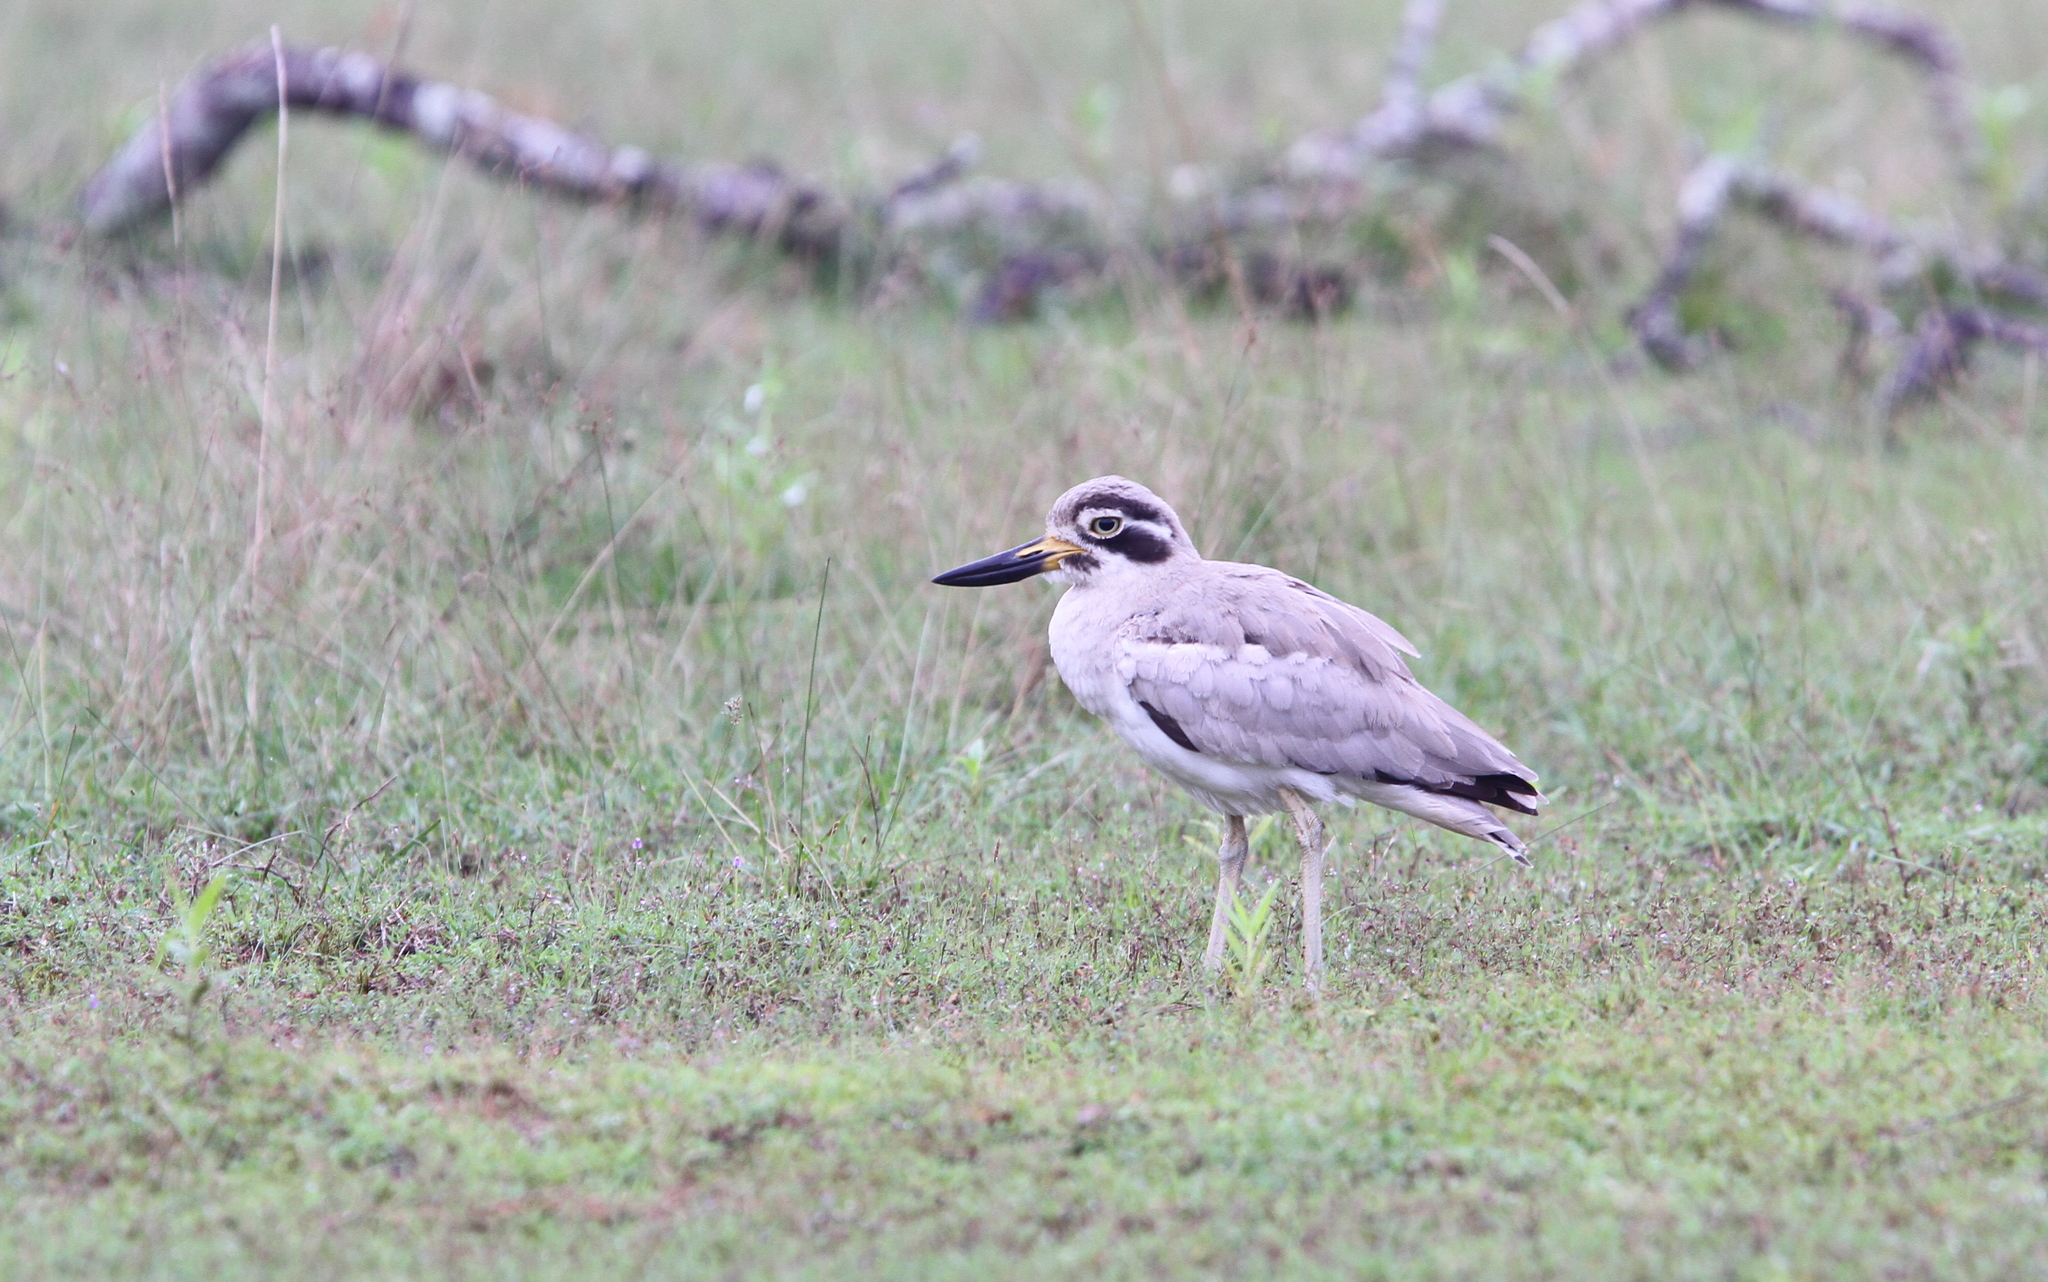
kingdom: Animalia
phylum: Chordata
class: Aves
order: Charadriiformes
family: Burhinidae
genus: Esacus
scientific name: Esacus recurvirostris
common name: Great stone-curlew
